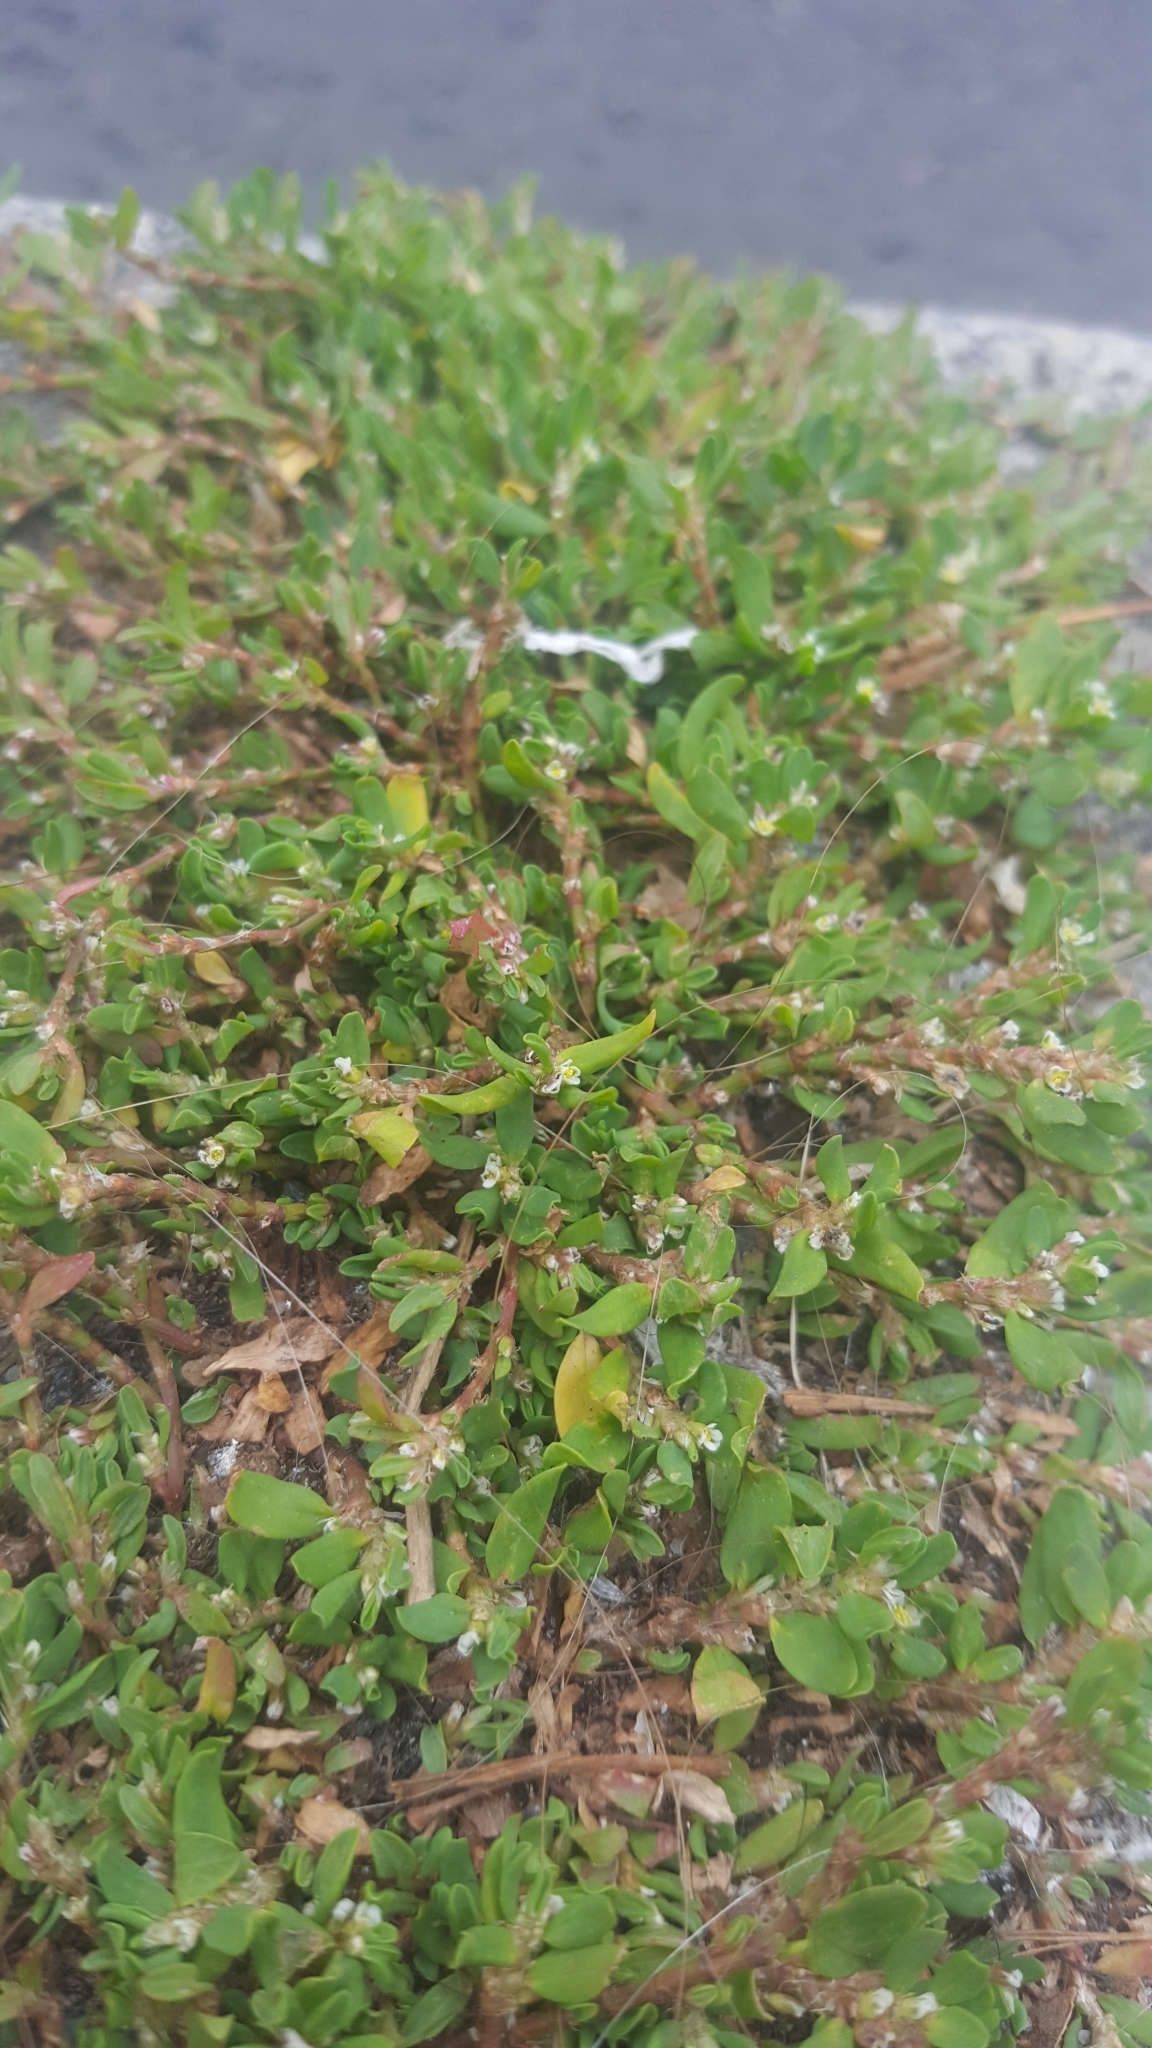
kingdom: Plantae
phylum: Tracheophyta
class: Magnoliopsida
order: Caryophyllales
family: Polygonaceae
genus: Polygonum
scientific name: Polygonum arenastrum
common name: Equal-leaved knotgrass
